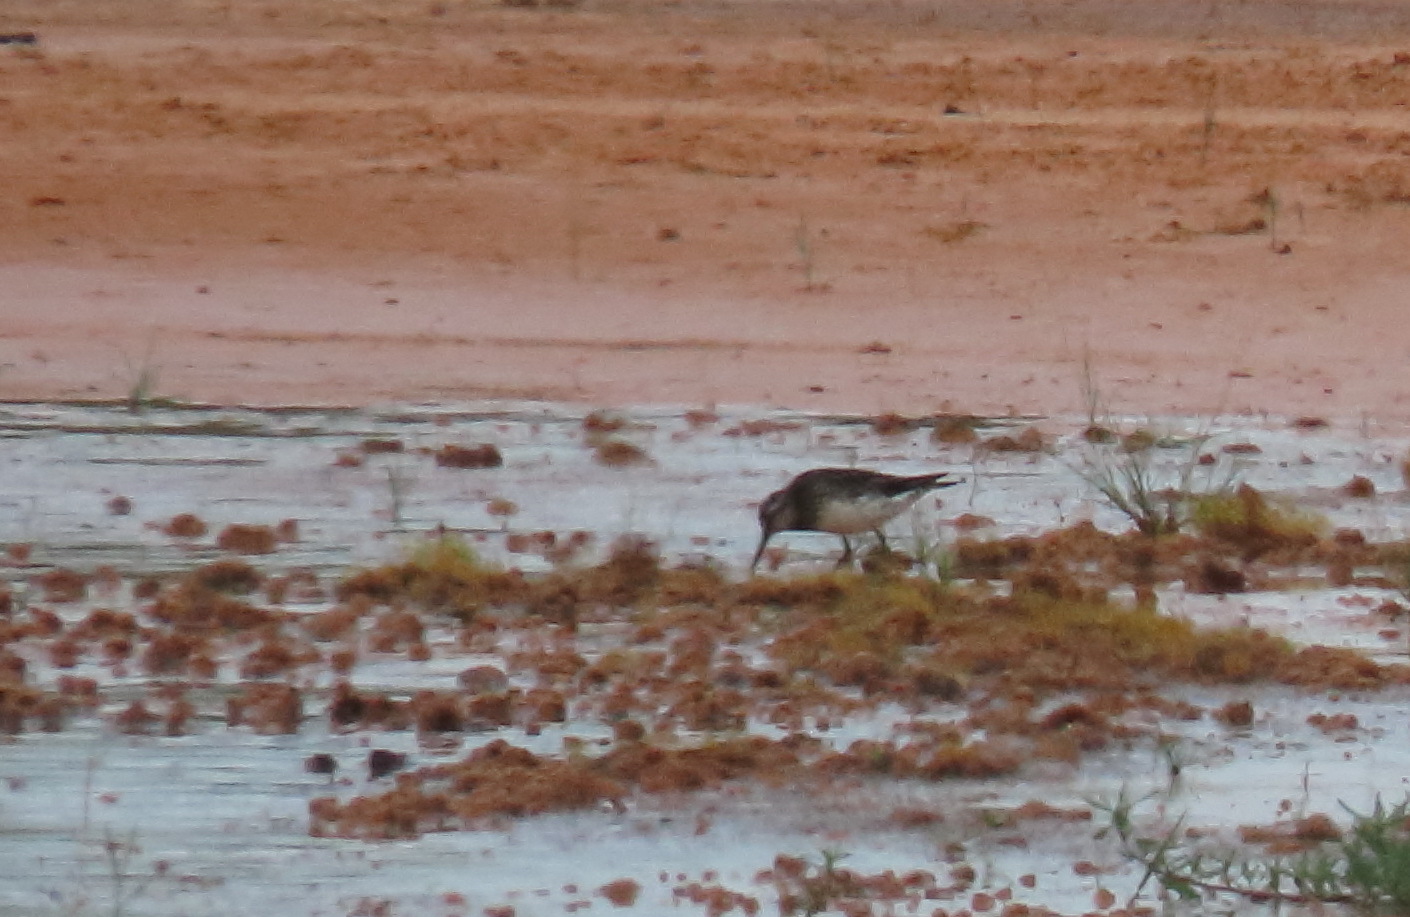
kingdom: Animalia
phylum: Chordata
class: Aves
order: Charadriiformes
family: Scolopacidae
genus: Calidris
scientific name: Calidris falcinellus
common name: Broad-billed sandpiper
